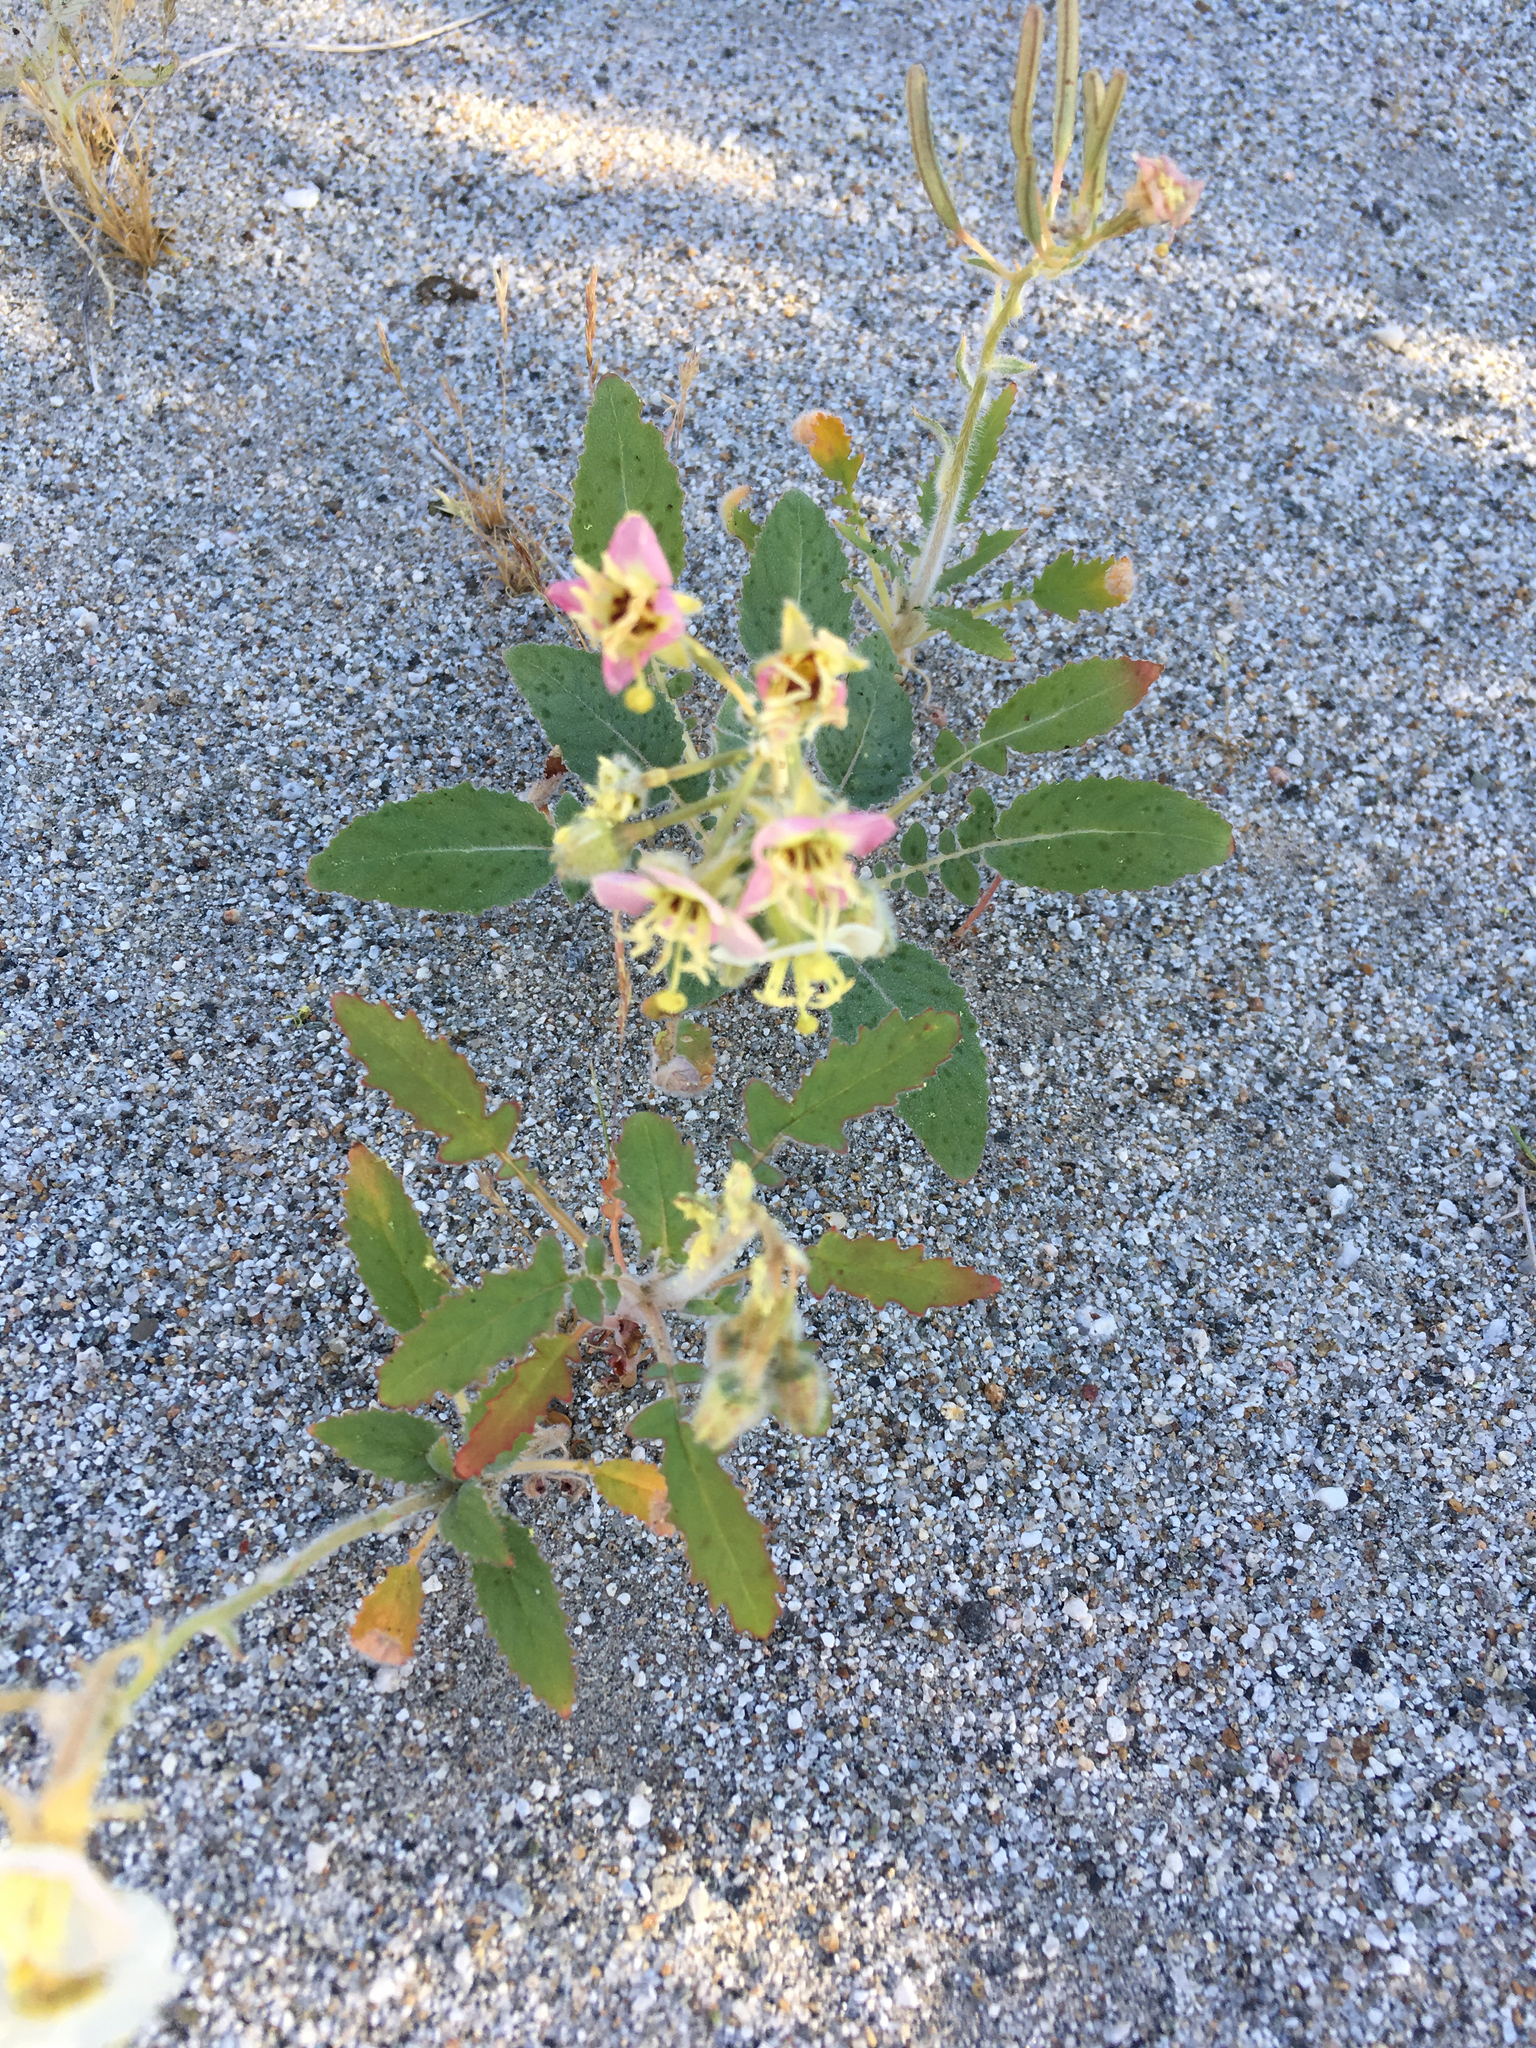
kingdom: Plantae
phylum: Tracheophyta
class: Magnoliopsida
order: Myrtales
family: Onagraceae
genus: Chylismia
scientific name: Chylismia claviformis
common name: Browneyes
